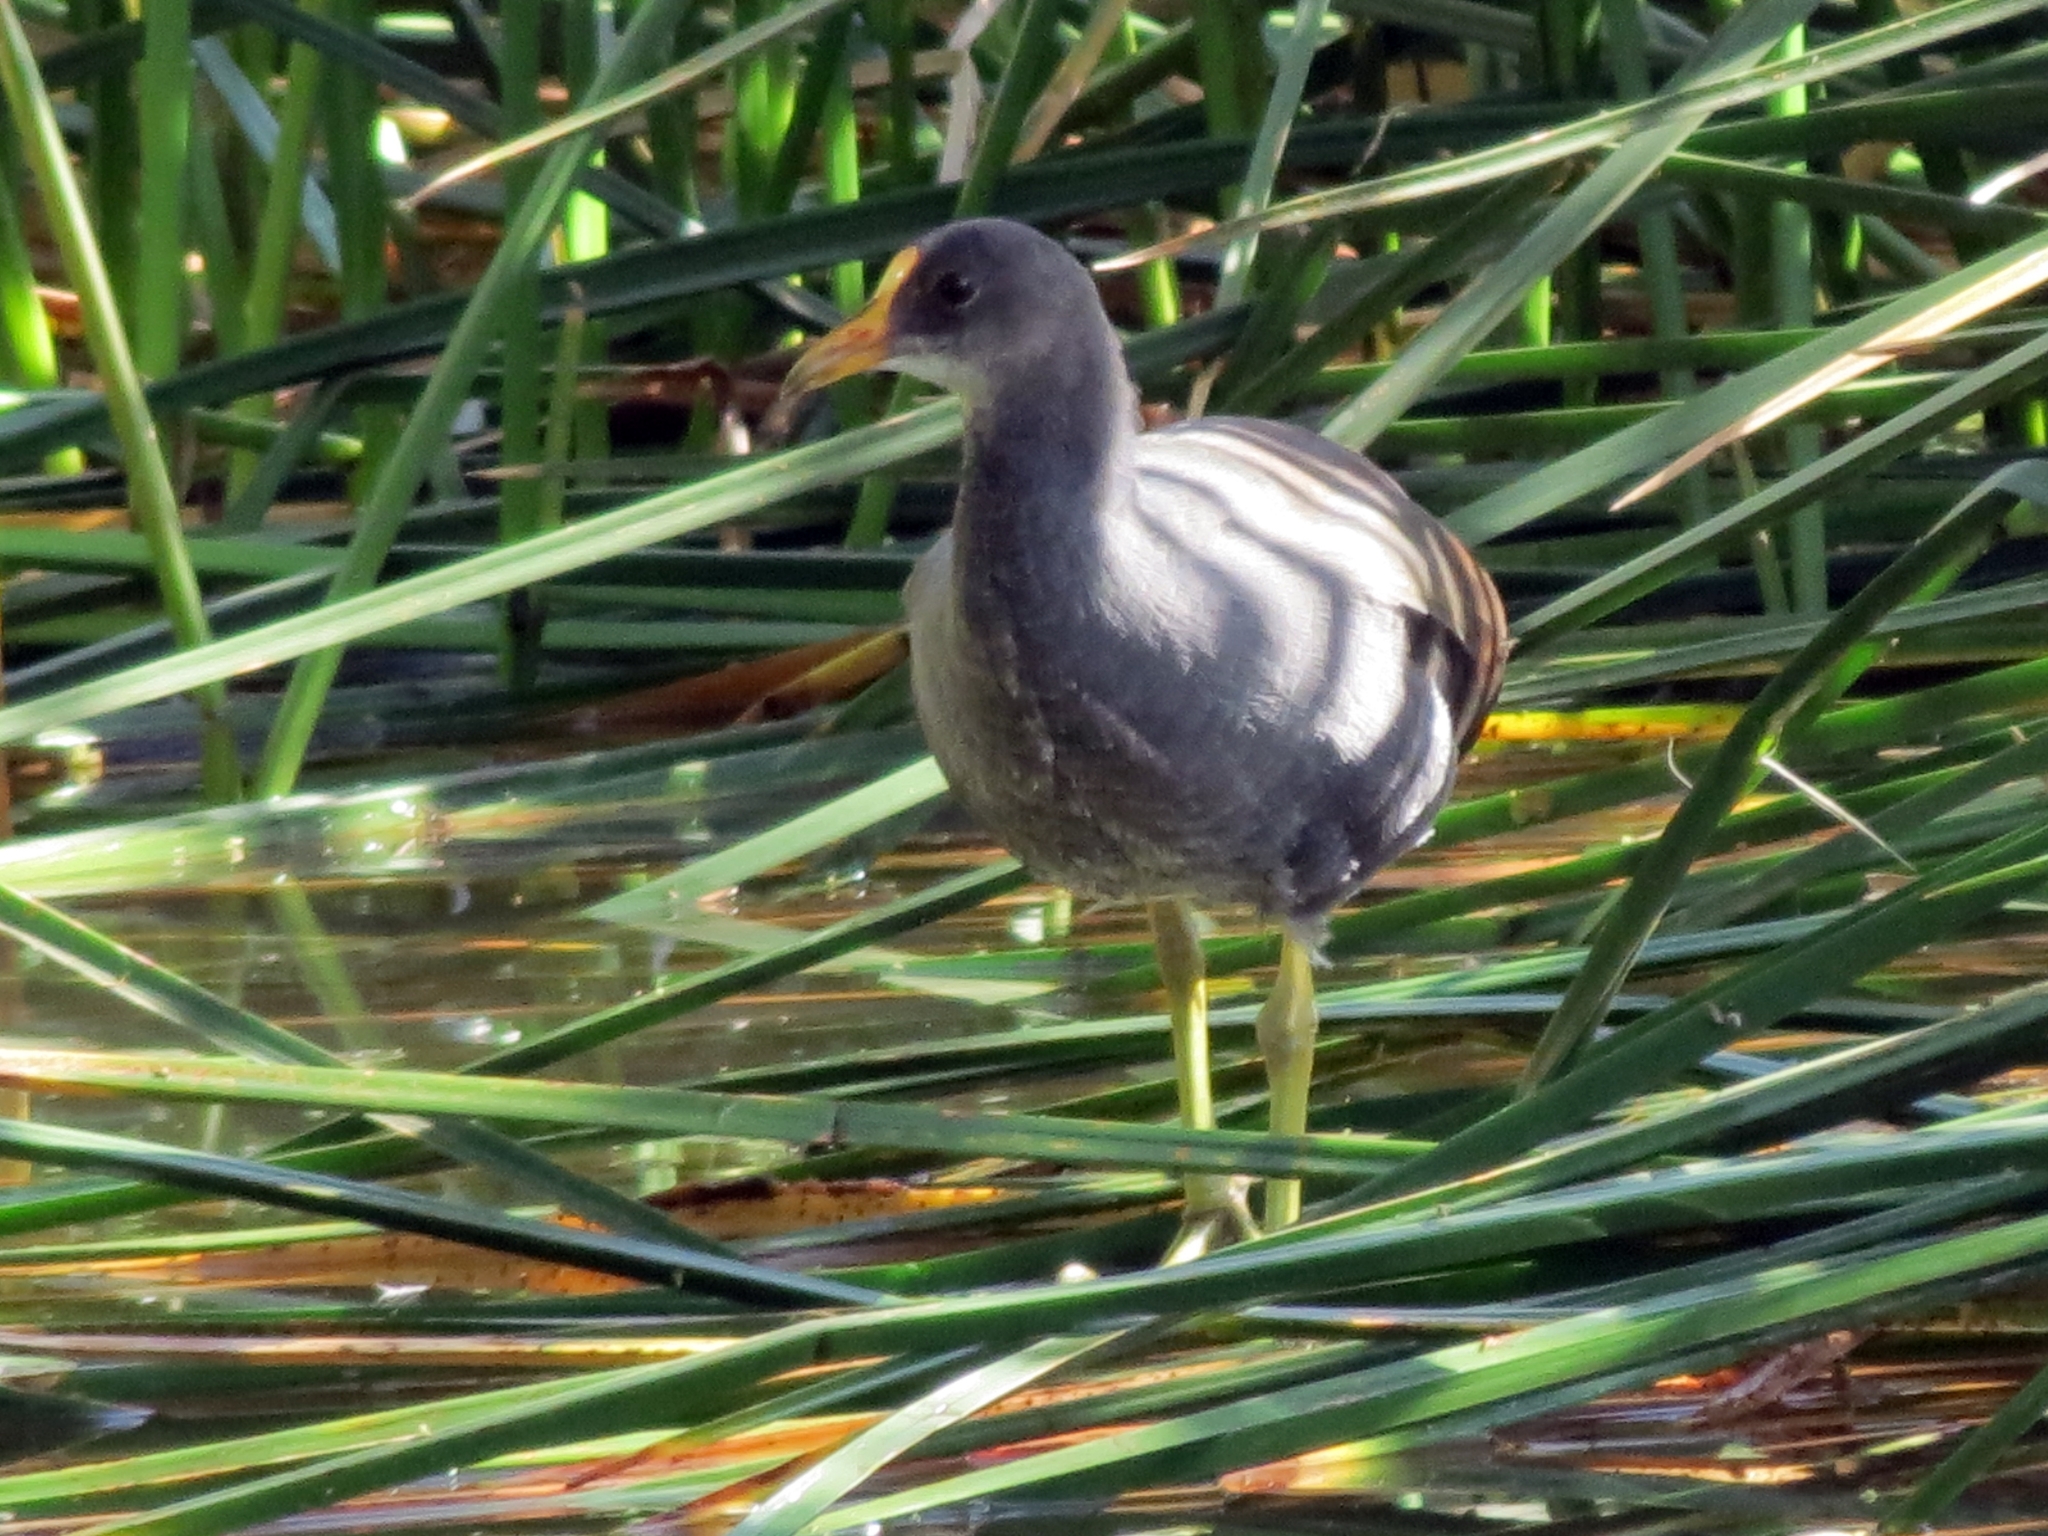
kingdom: Animalia
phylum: Chordata
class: Aves
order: Gruiformes
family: Rallidae
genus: Gallinula
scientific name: Gallinula chloropus
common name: Common moorhen
